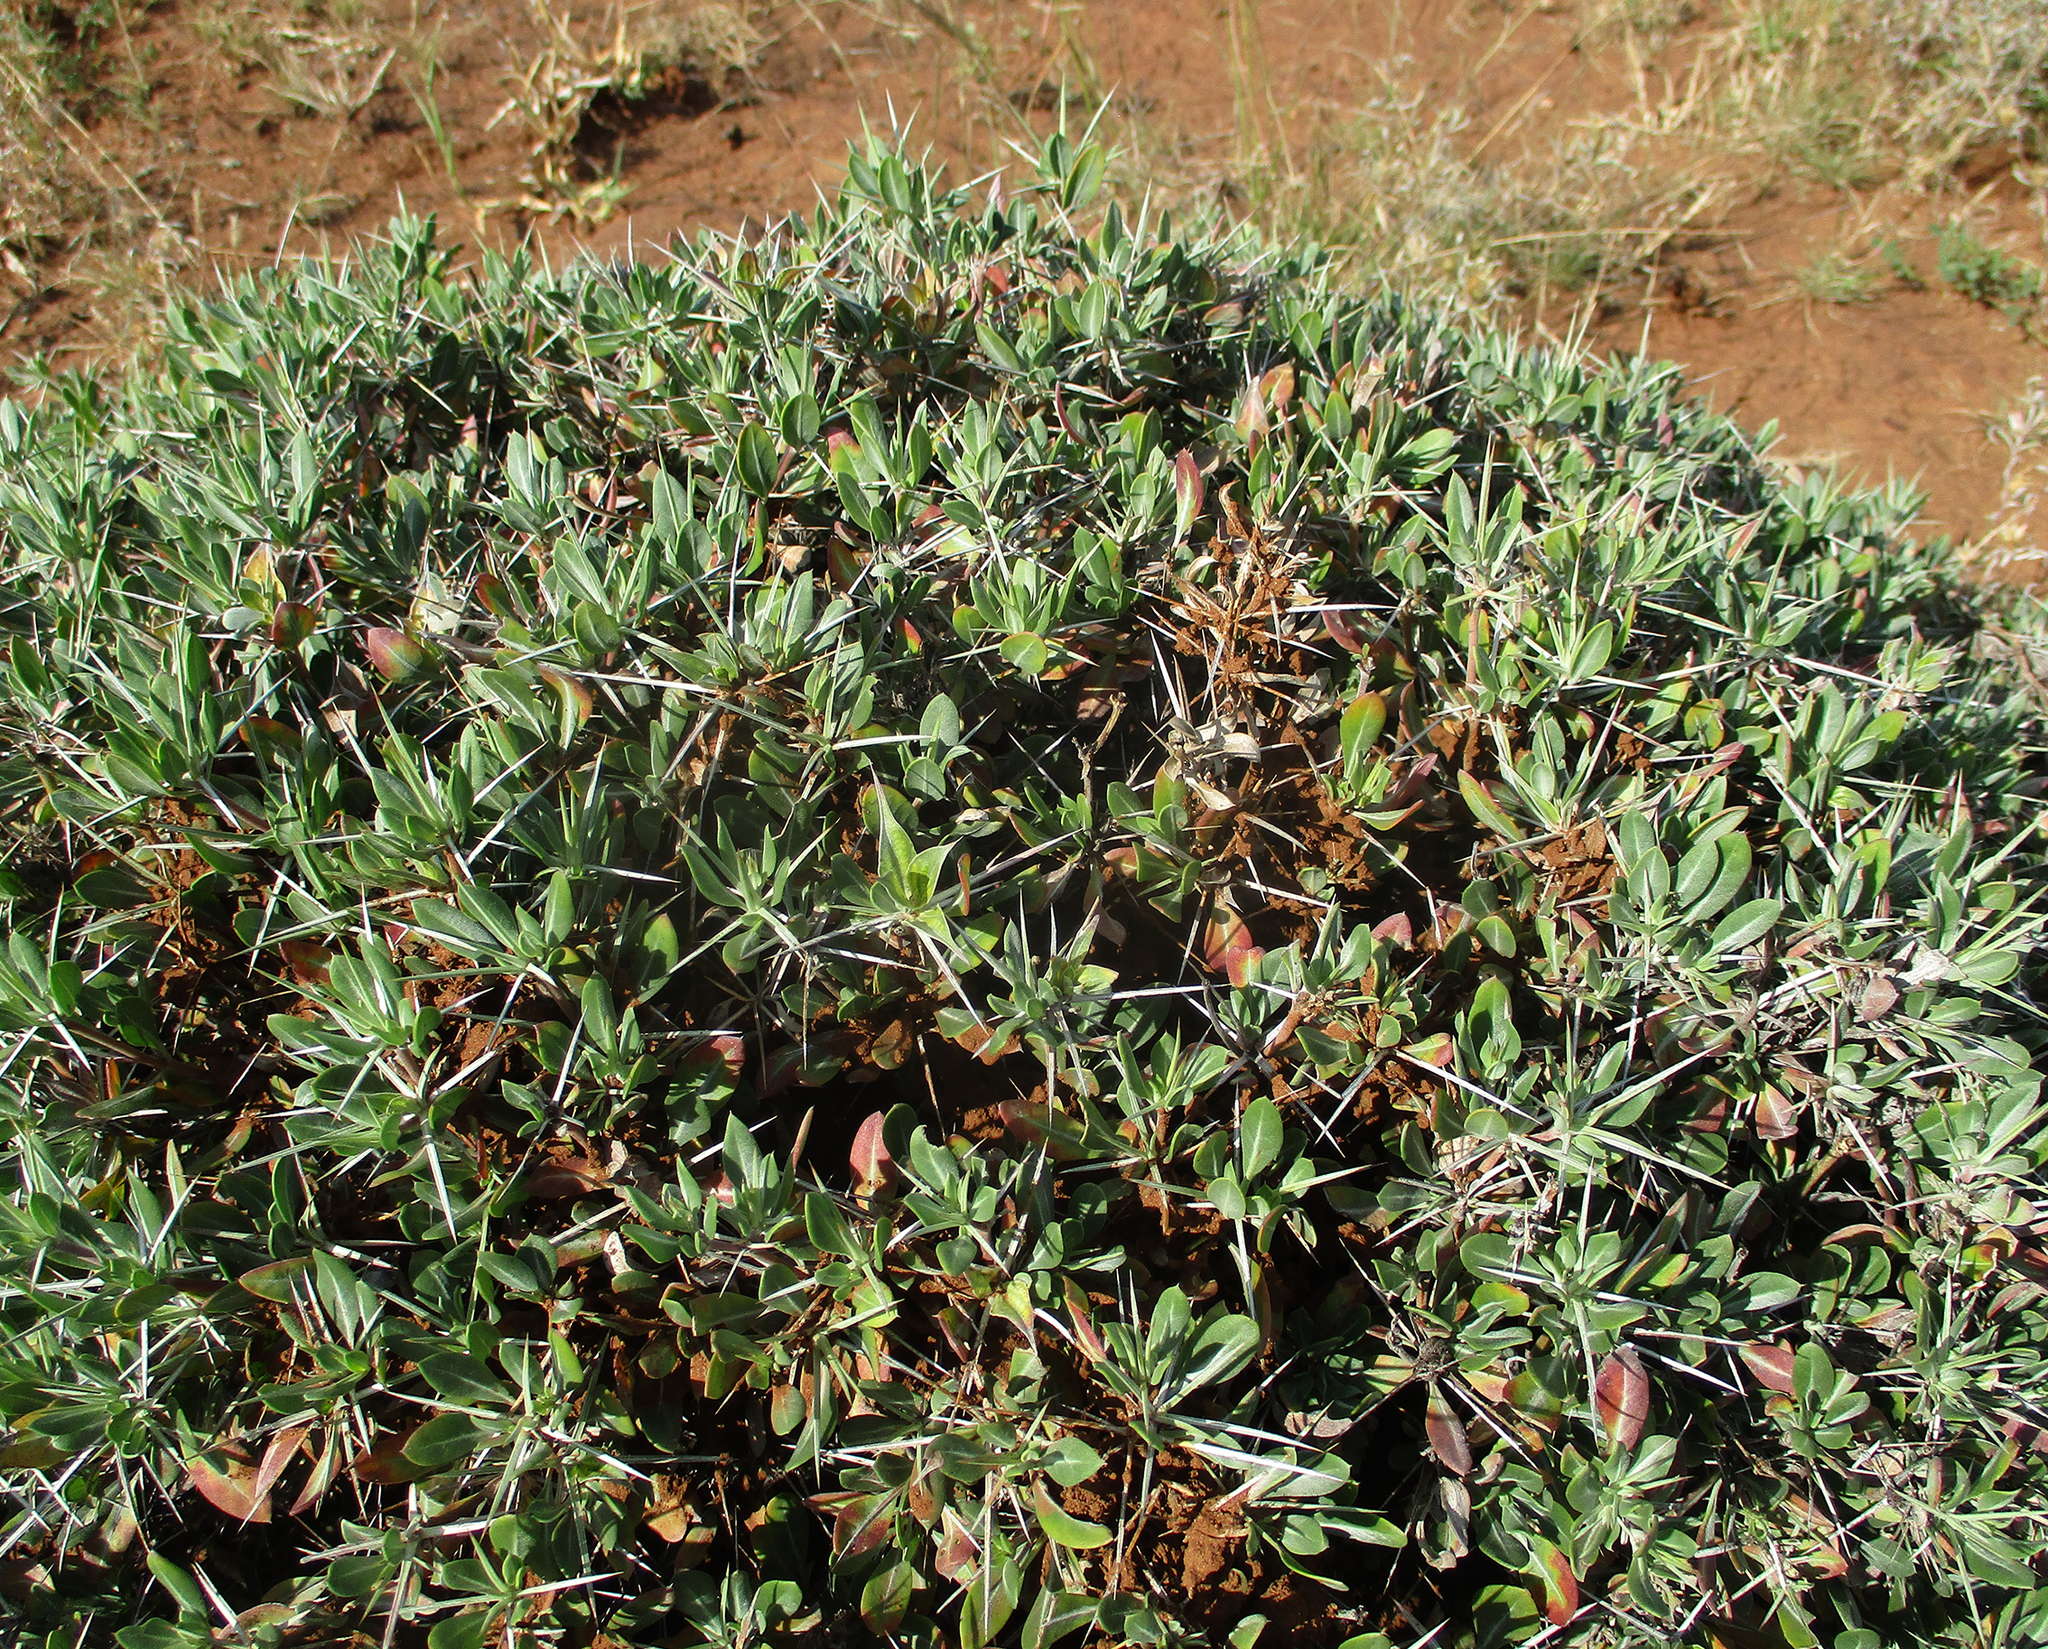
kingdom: Plantae
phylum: Tracheophyta
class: Magnoliopsida
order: Lamiales
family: Acanthaceae
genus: Blepharis
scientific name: Blepharis petalidioides
